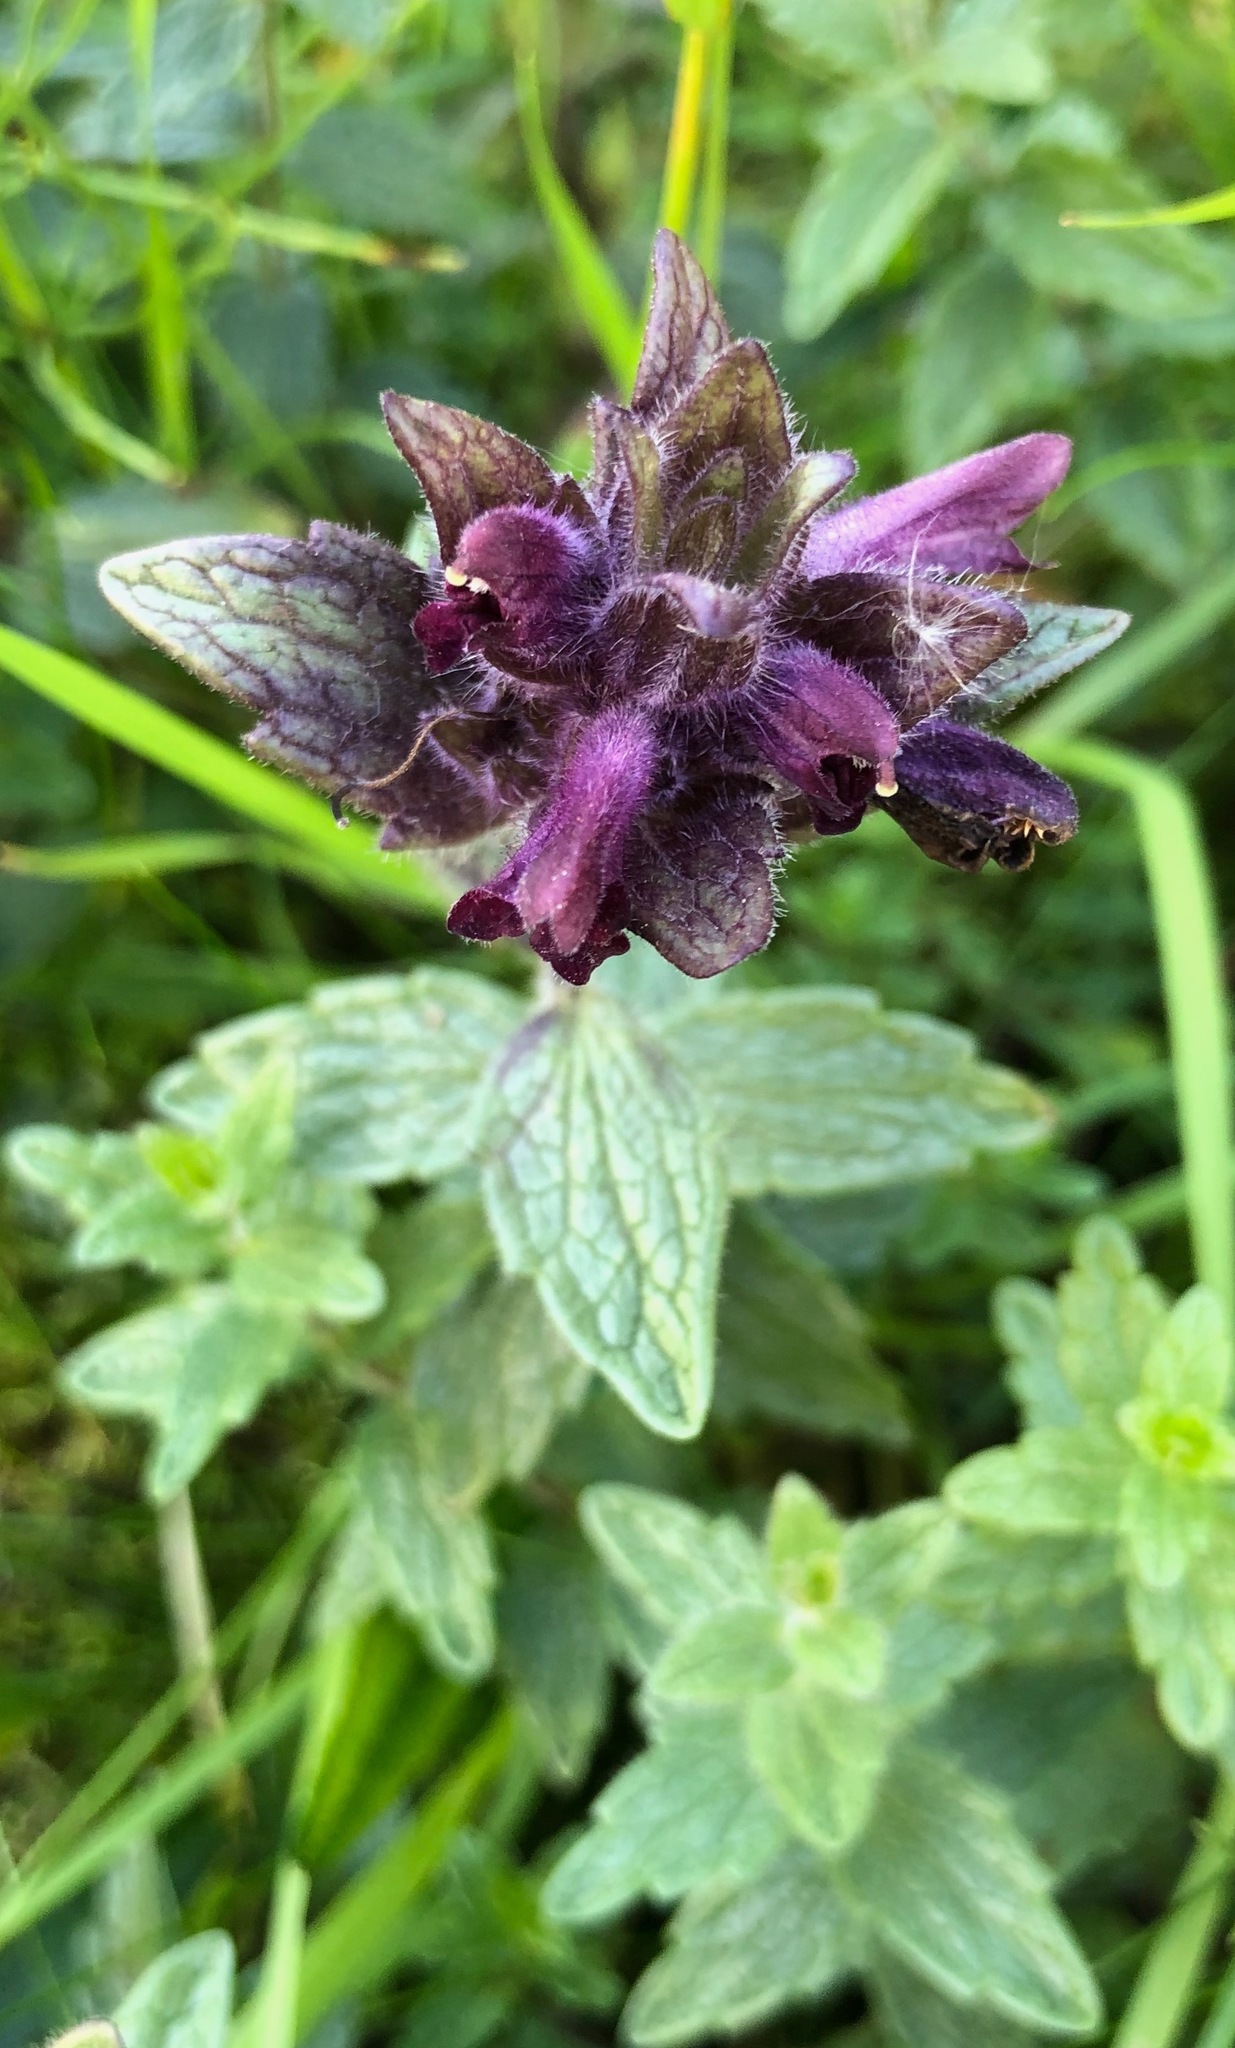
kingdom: Plantae
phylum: Tracheophyta
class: Magnoliopsida
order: Lamiales
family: Orobanchaceae
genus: Bartsia
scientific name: Bartsia alpina
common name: Alpine bartsia
